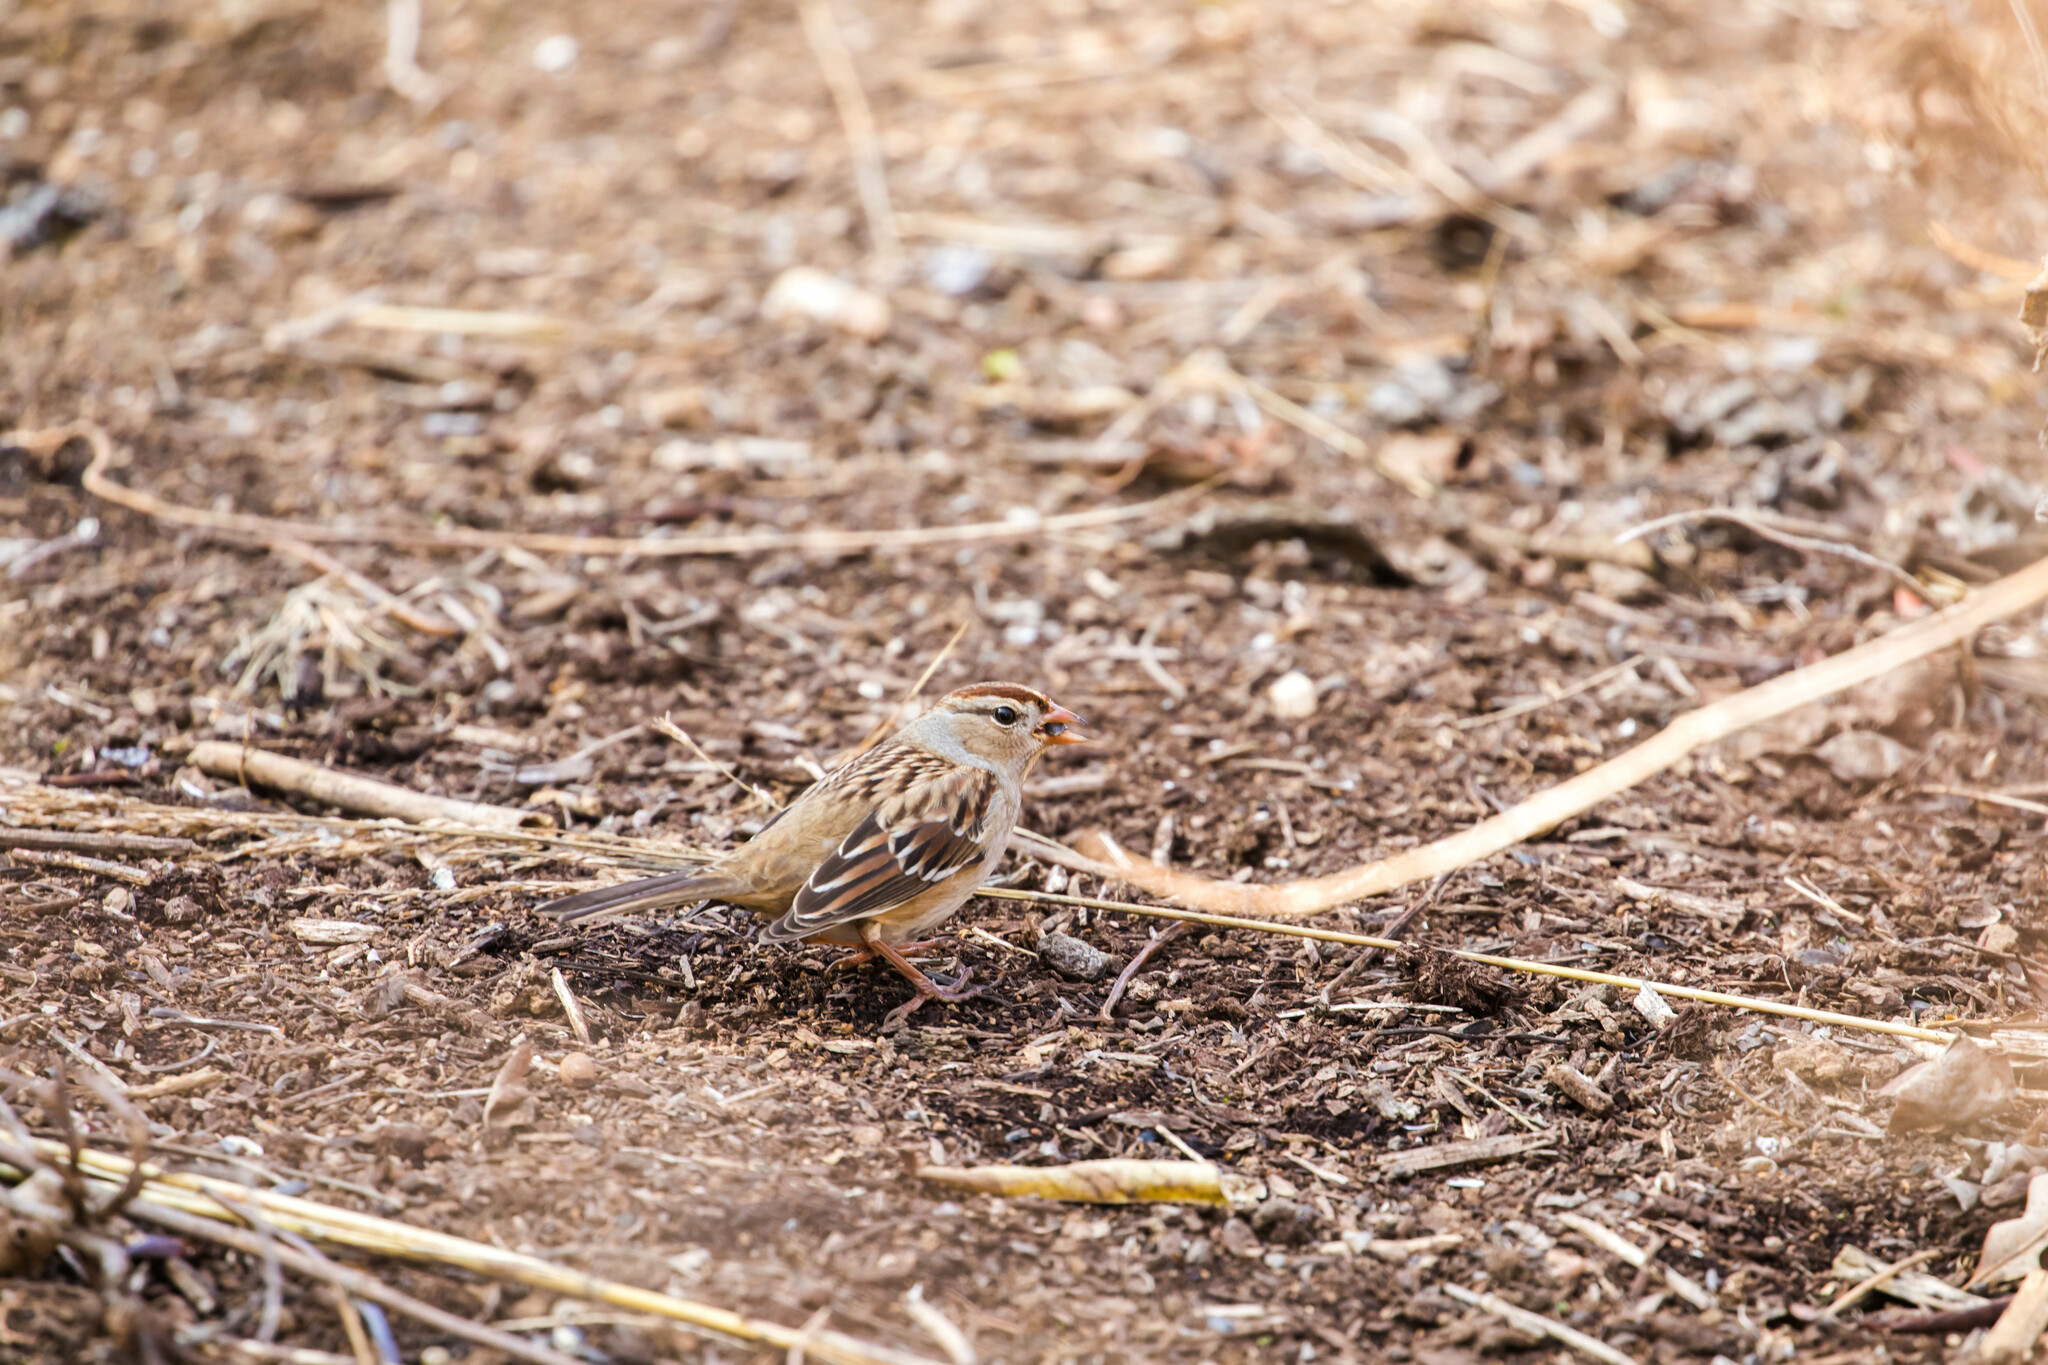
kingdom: Animalia
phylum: Chordata
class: Aves
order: Passeriformes
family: Passerellidae
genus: Zonotrichia
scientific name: Zonotrichia leucophrys
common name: White-crowned sparrow
